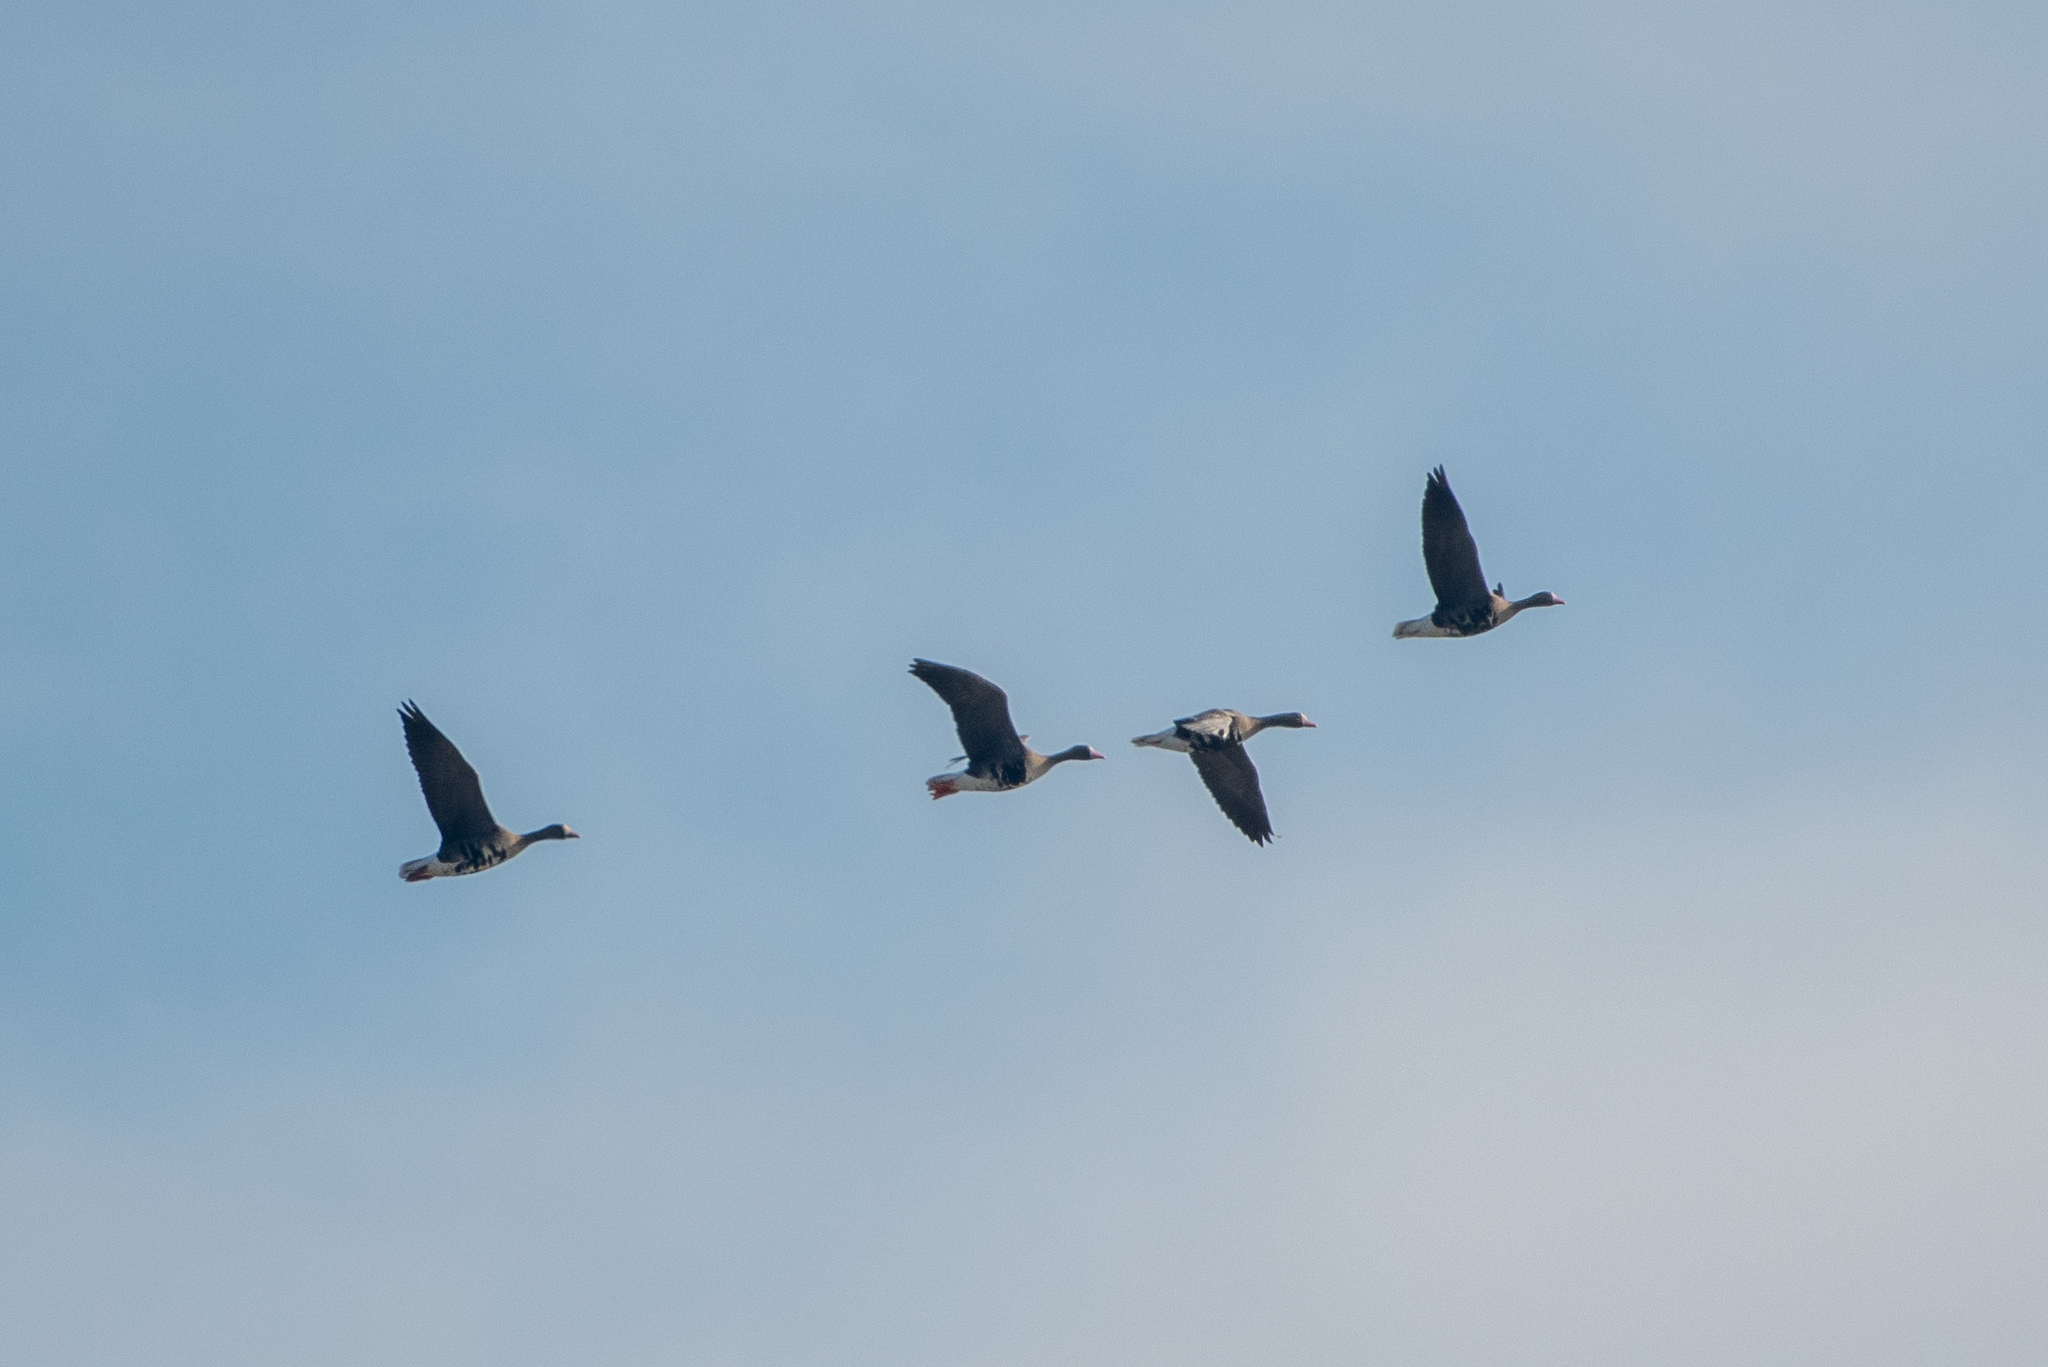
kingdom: Animalia
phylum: Chordata
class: Aves
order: Anseriformes
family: Anatidae
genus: Anser
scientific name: Anser albifrons
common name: Greater white-fronted goose
